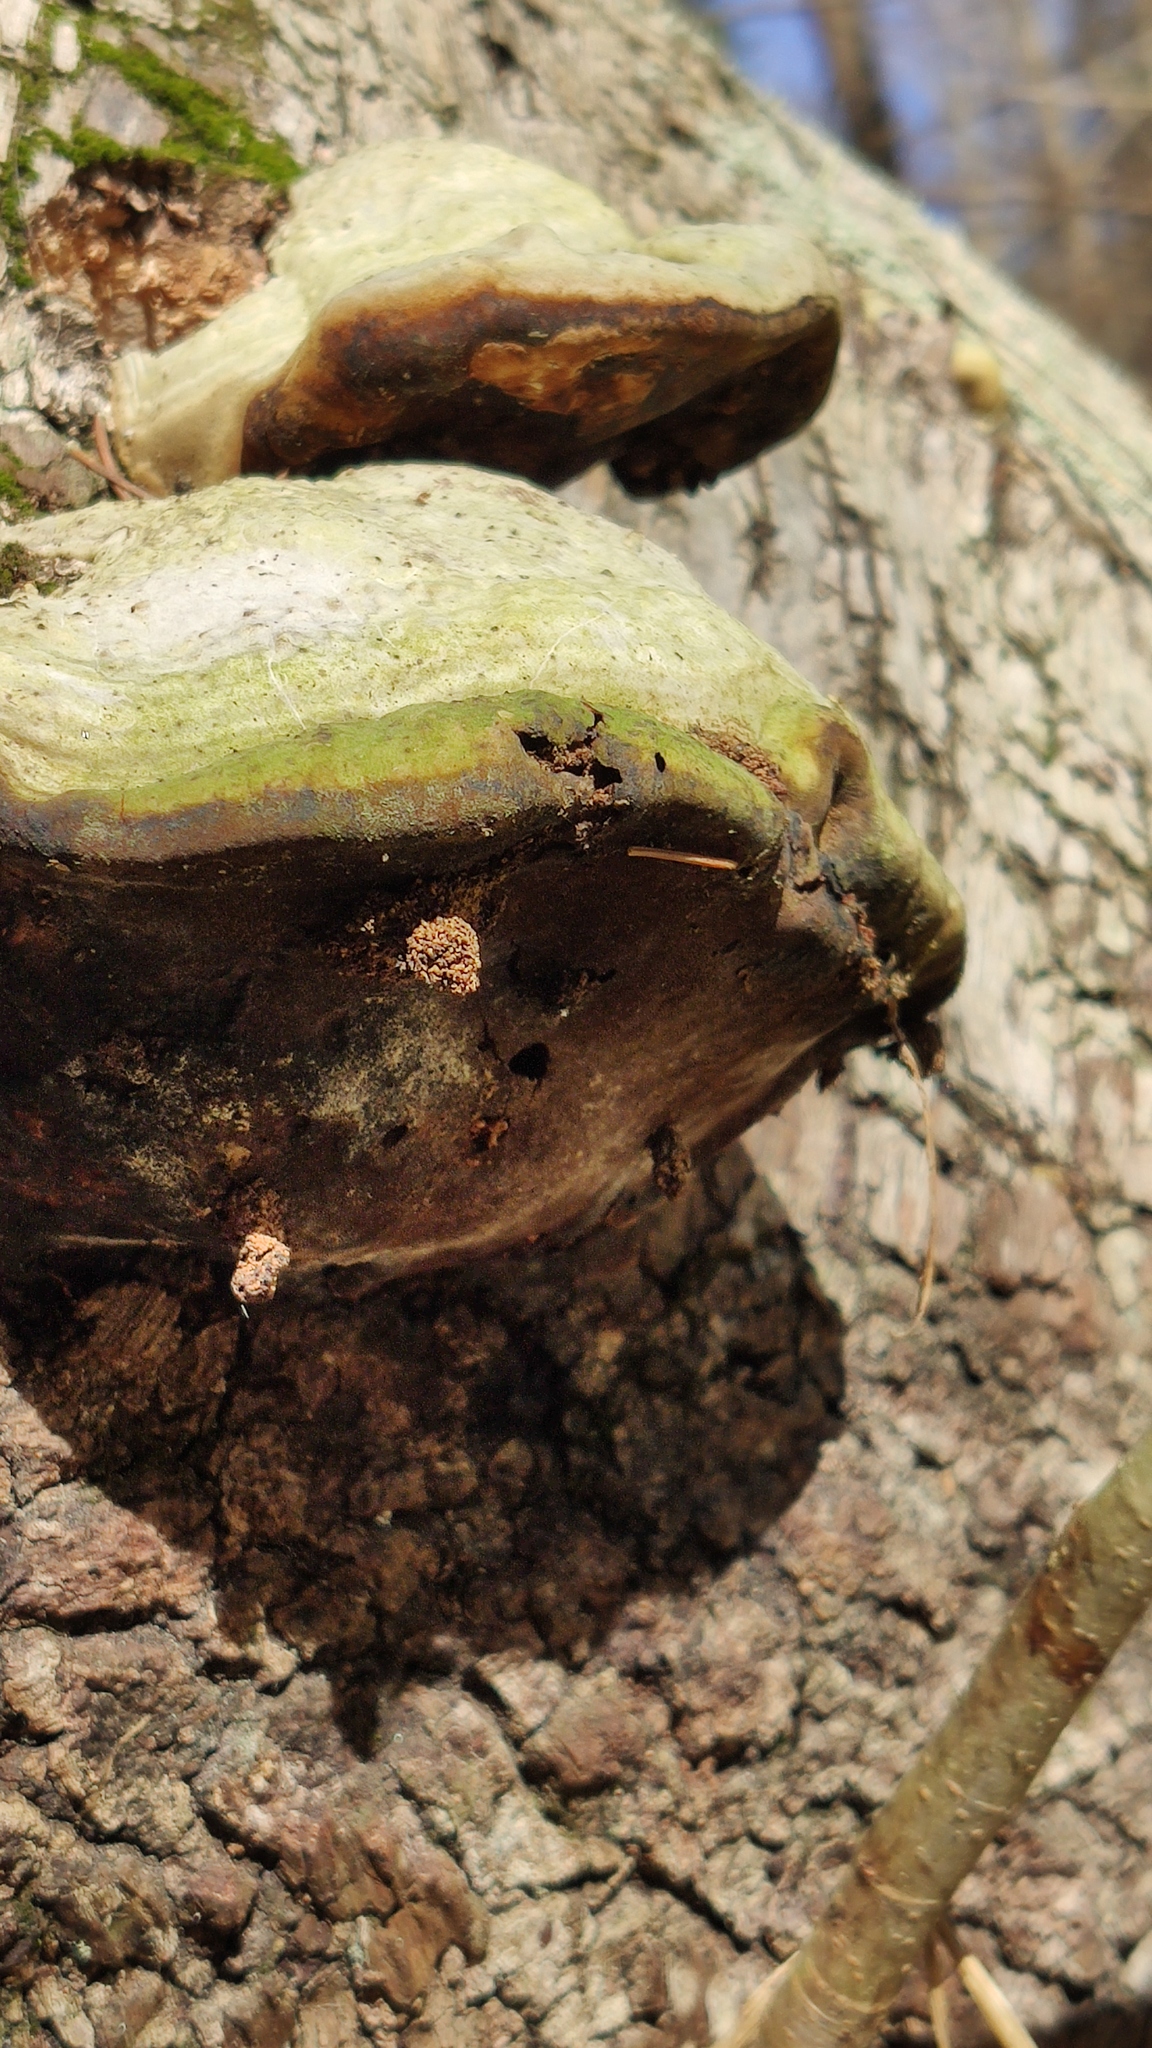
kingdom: Fungi
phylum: Basidiomycota
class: Agaricomycetes
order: Polyporales
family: Polyporaceae
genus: Fomes
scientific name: Fomes fomentarius
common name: Hoof fungus
